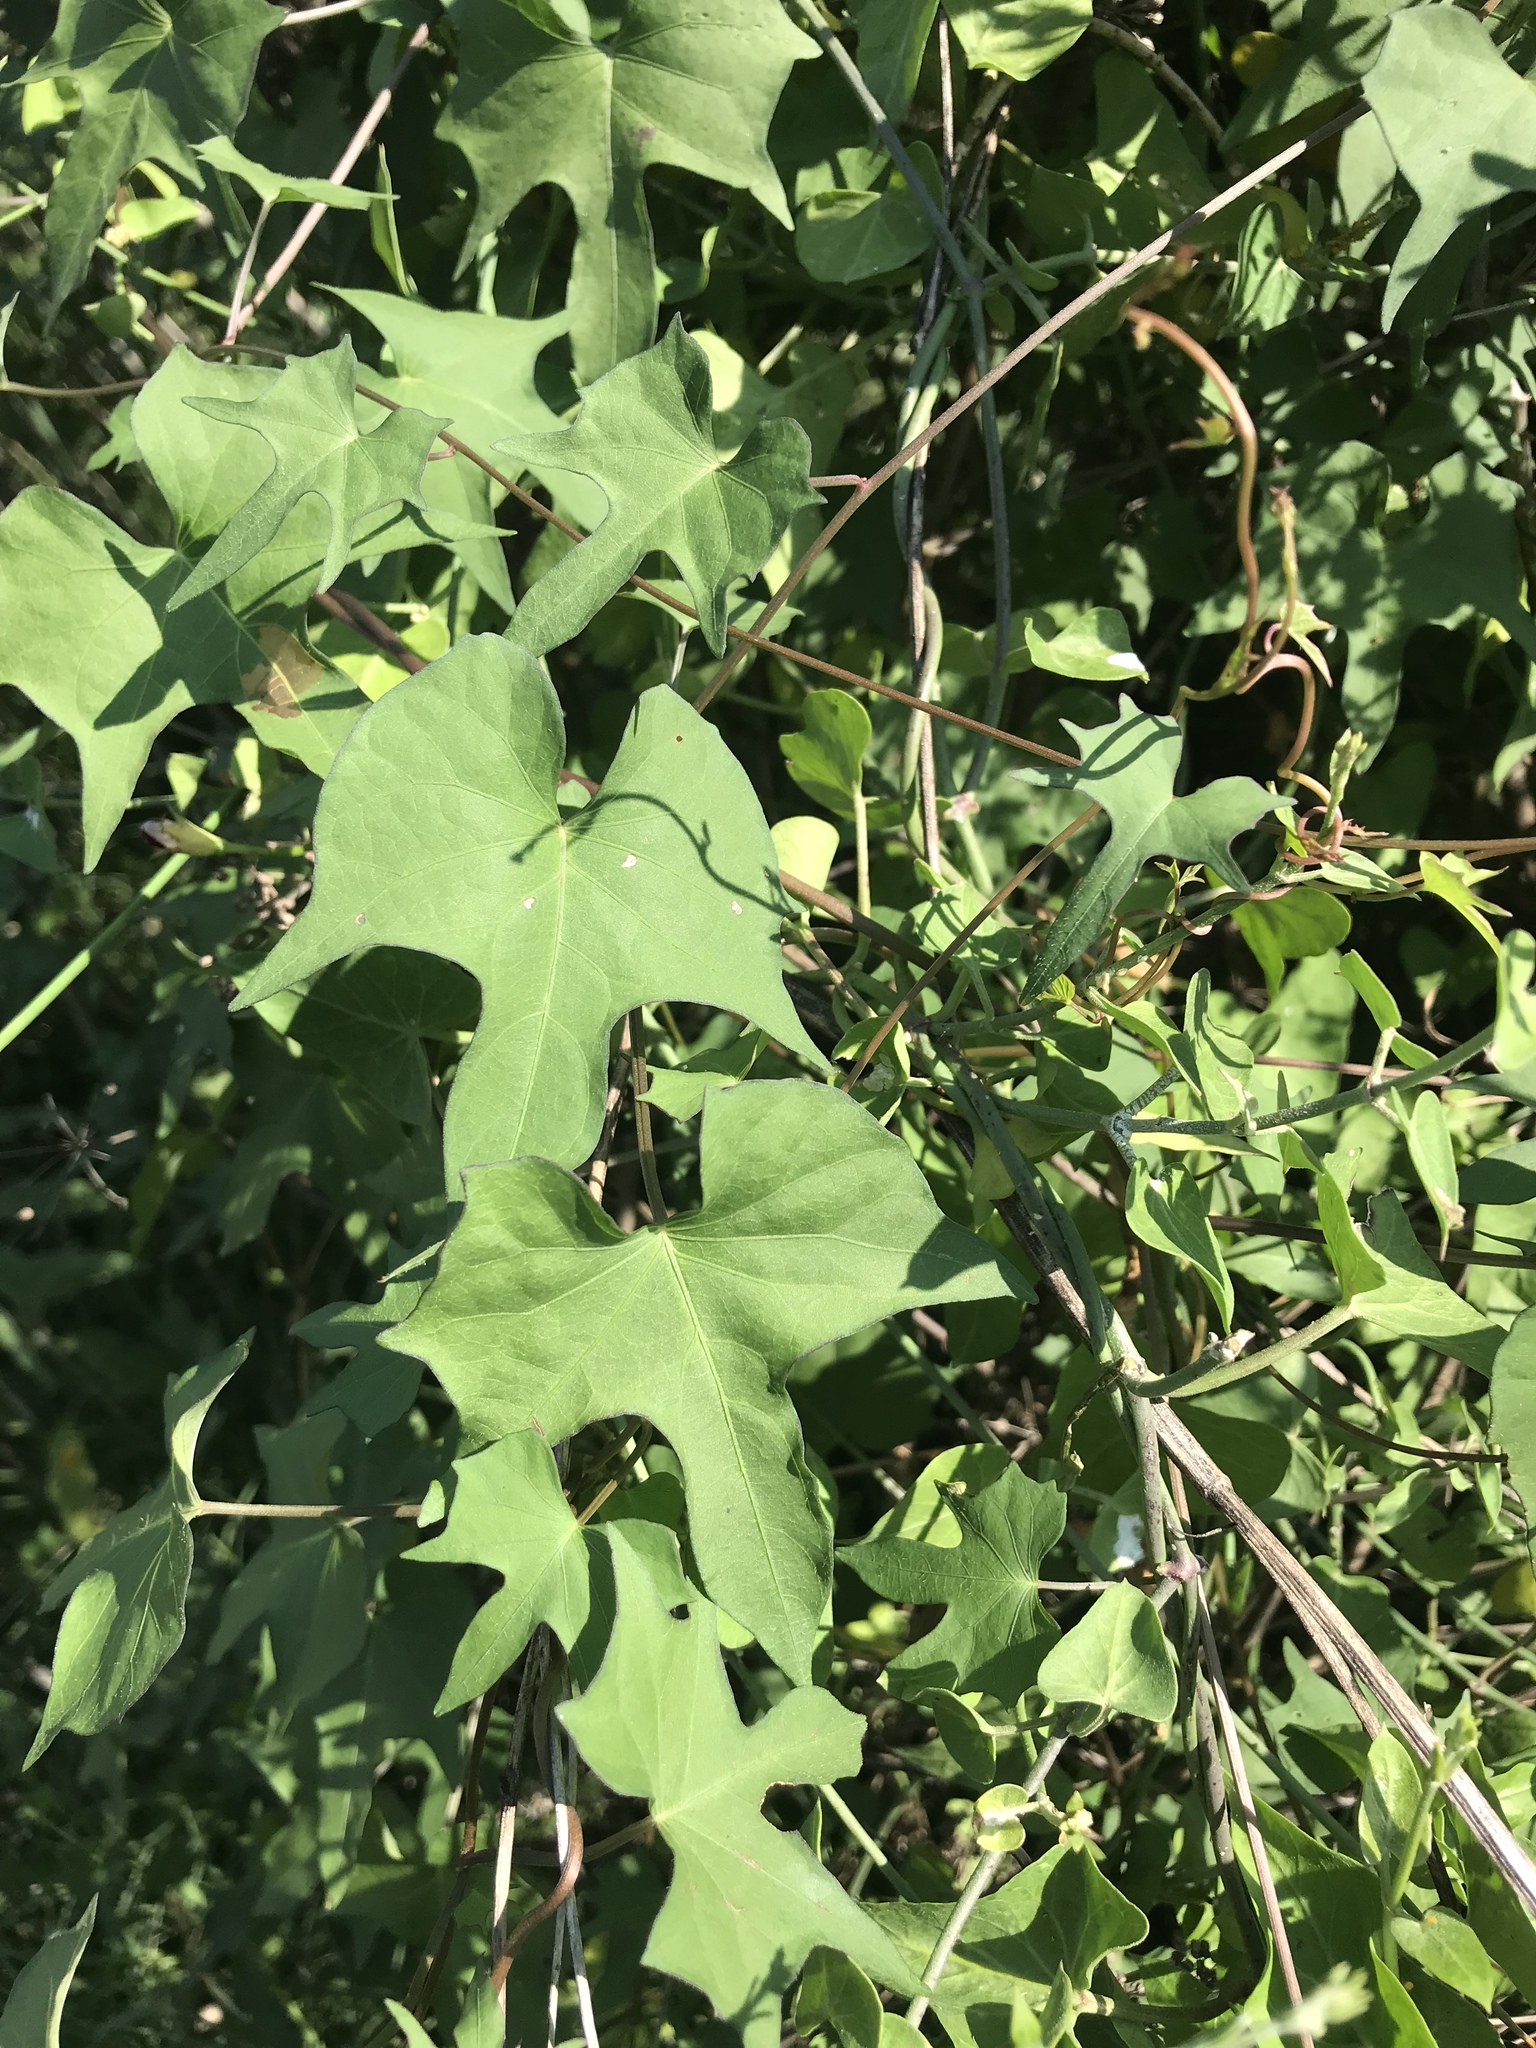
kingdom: Plantae
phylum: Tracheophyta
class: Magnoliopsida
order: Solanales
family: Convolvulaceae
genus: Ipomoea
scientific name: Ipomoea cordatotriloba
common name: Cotton morning glory
